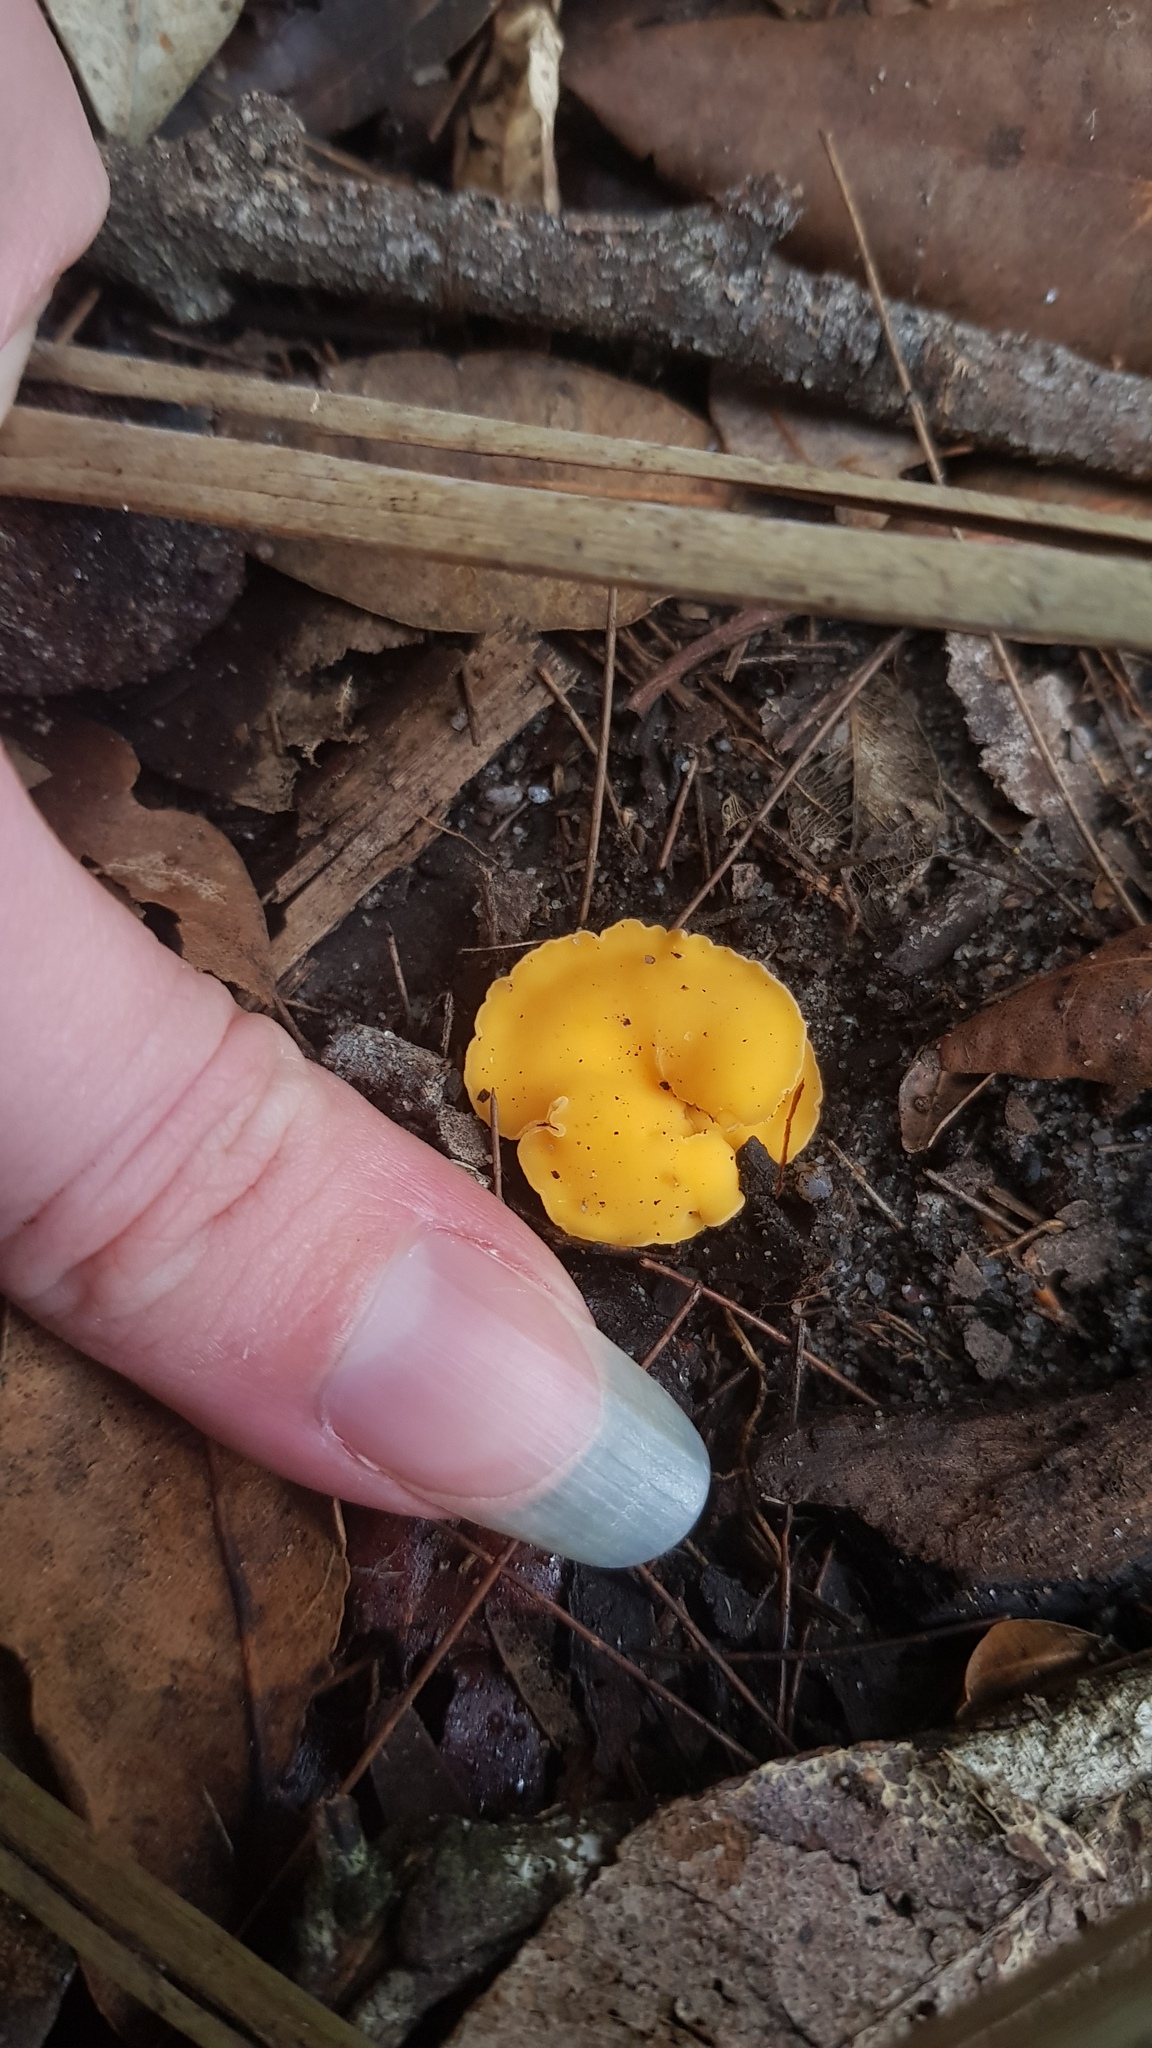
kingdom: Fungi
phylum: Ascomycota
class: Leotiomycetes
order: Helotiales
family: Helotiaceae
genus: Phaeohelotium
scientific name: Phaeohelotium baileyanum
